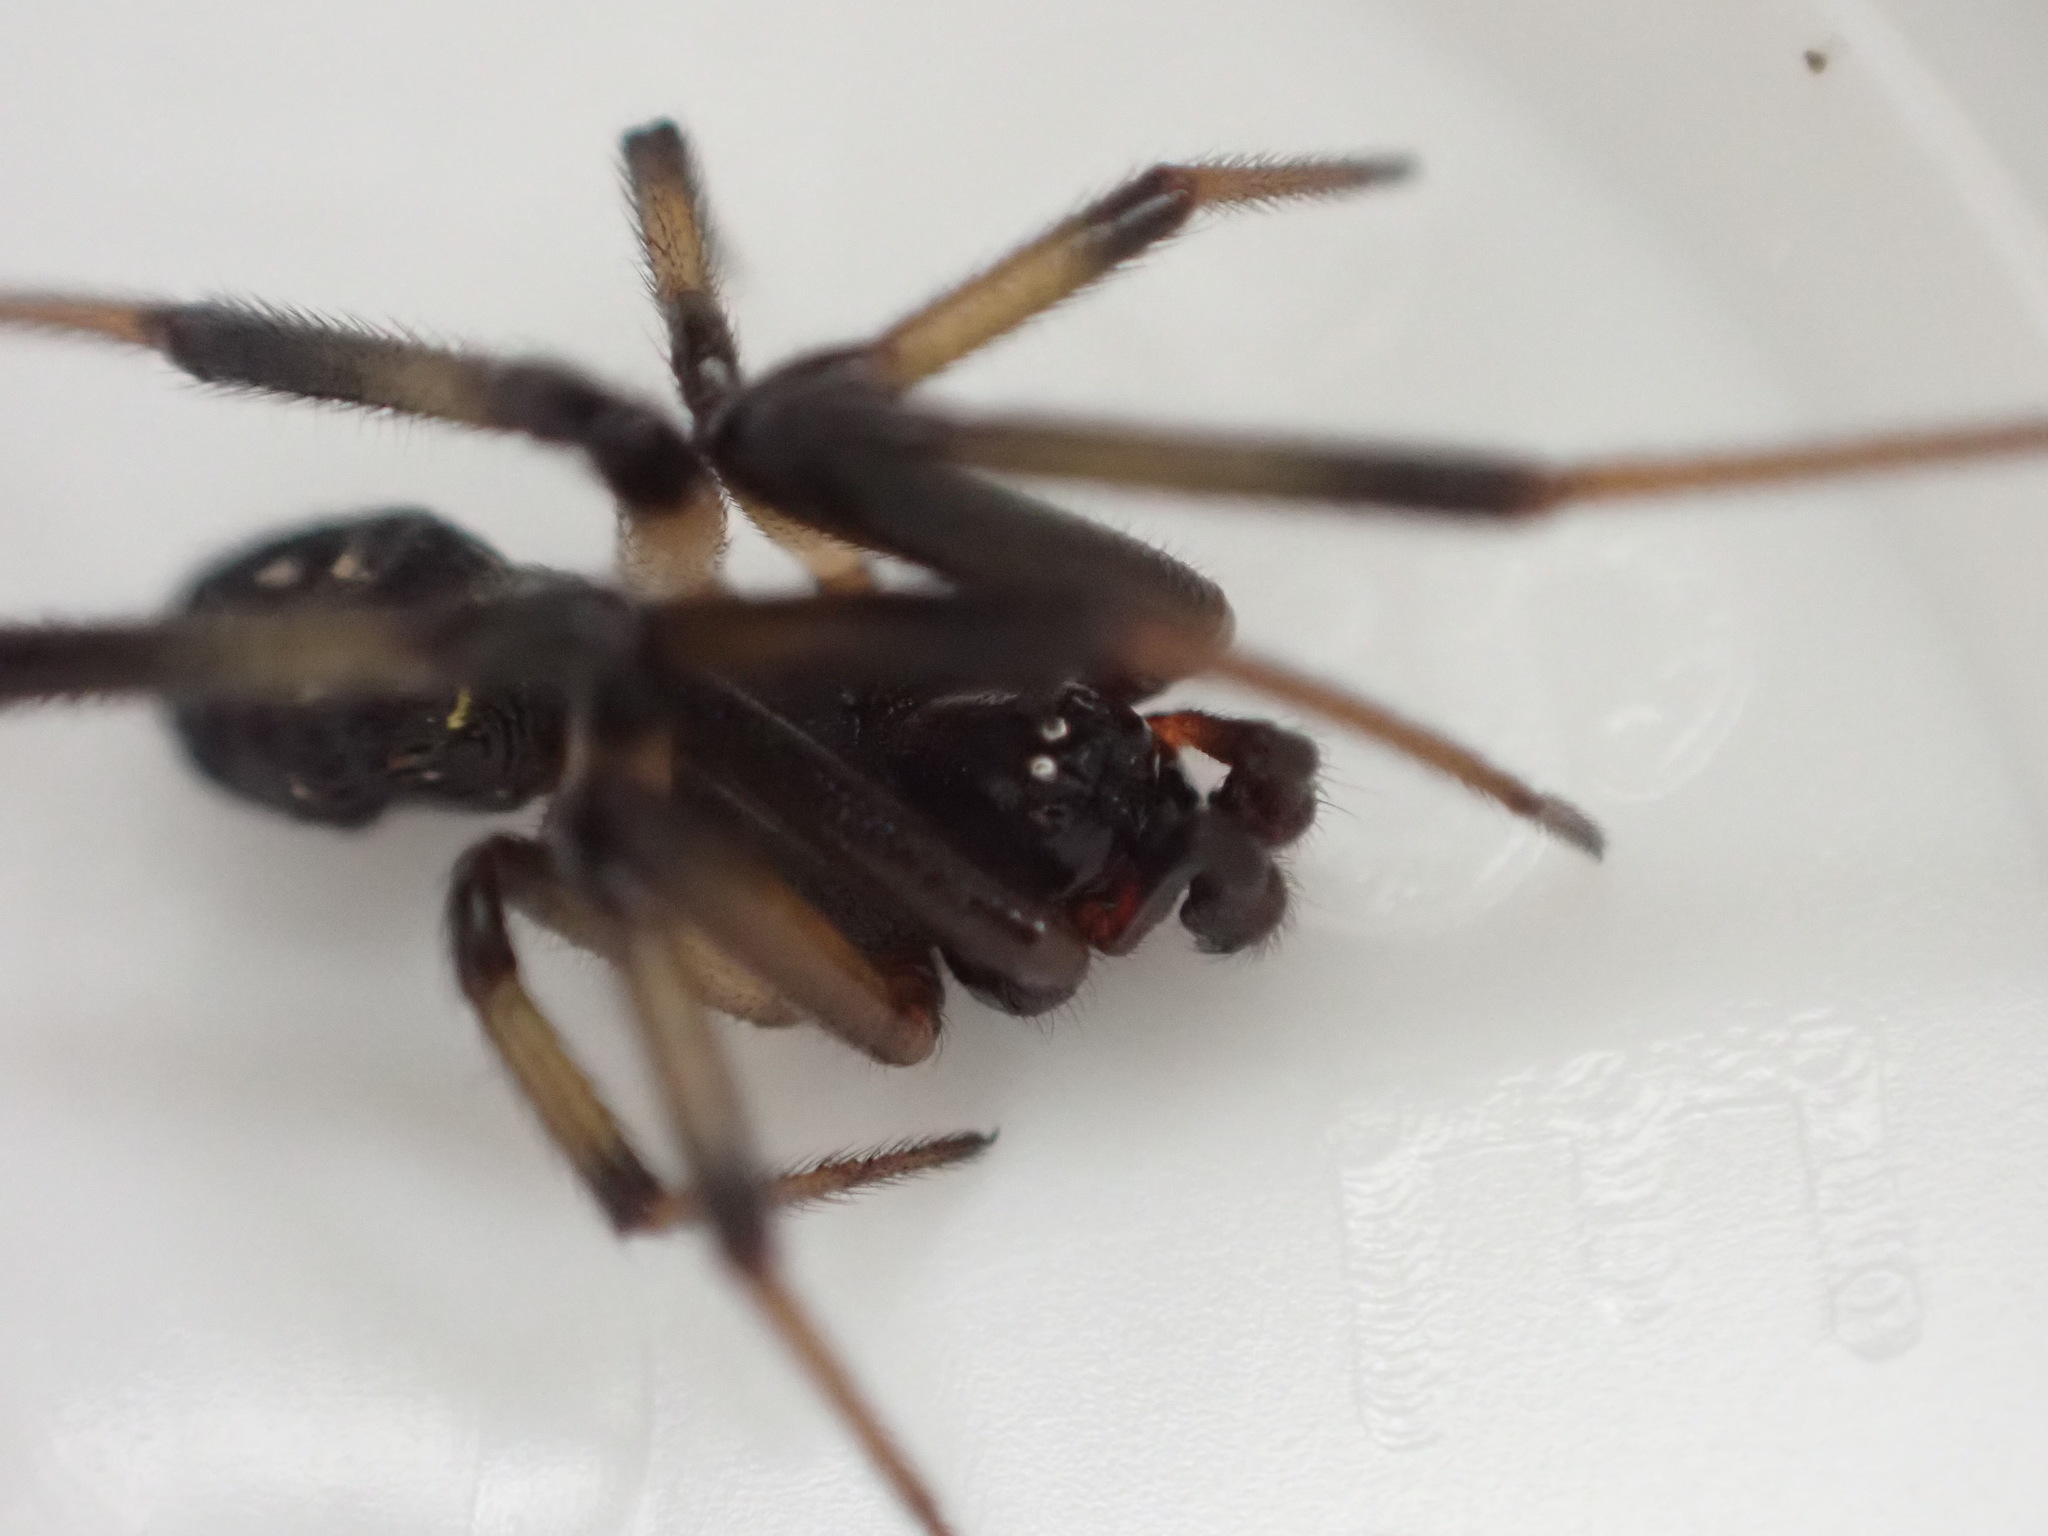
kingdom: Animalia
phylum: Arthropoda
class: Arachnida
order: Araneae
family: Theridiidae
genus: Steatoda
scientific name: Steatoda capensis
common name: Cobweb weaver
